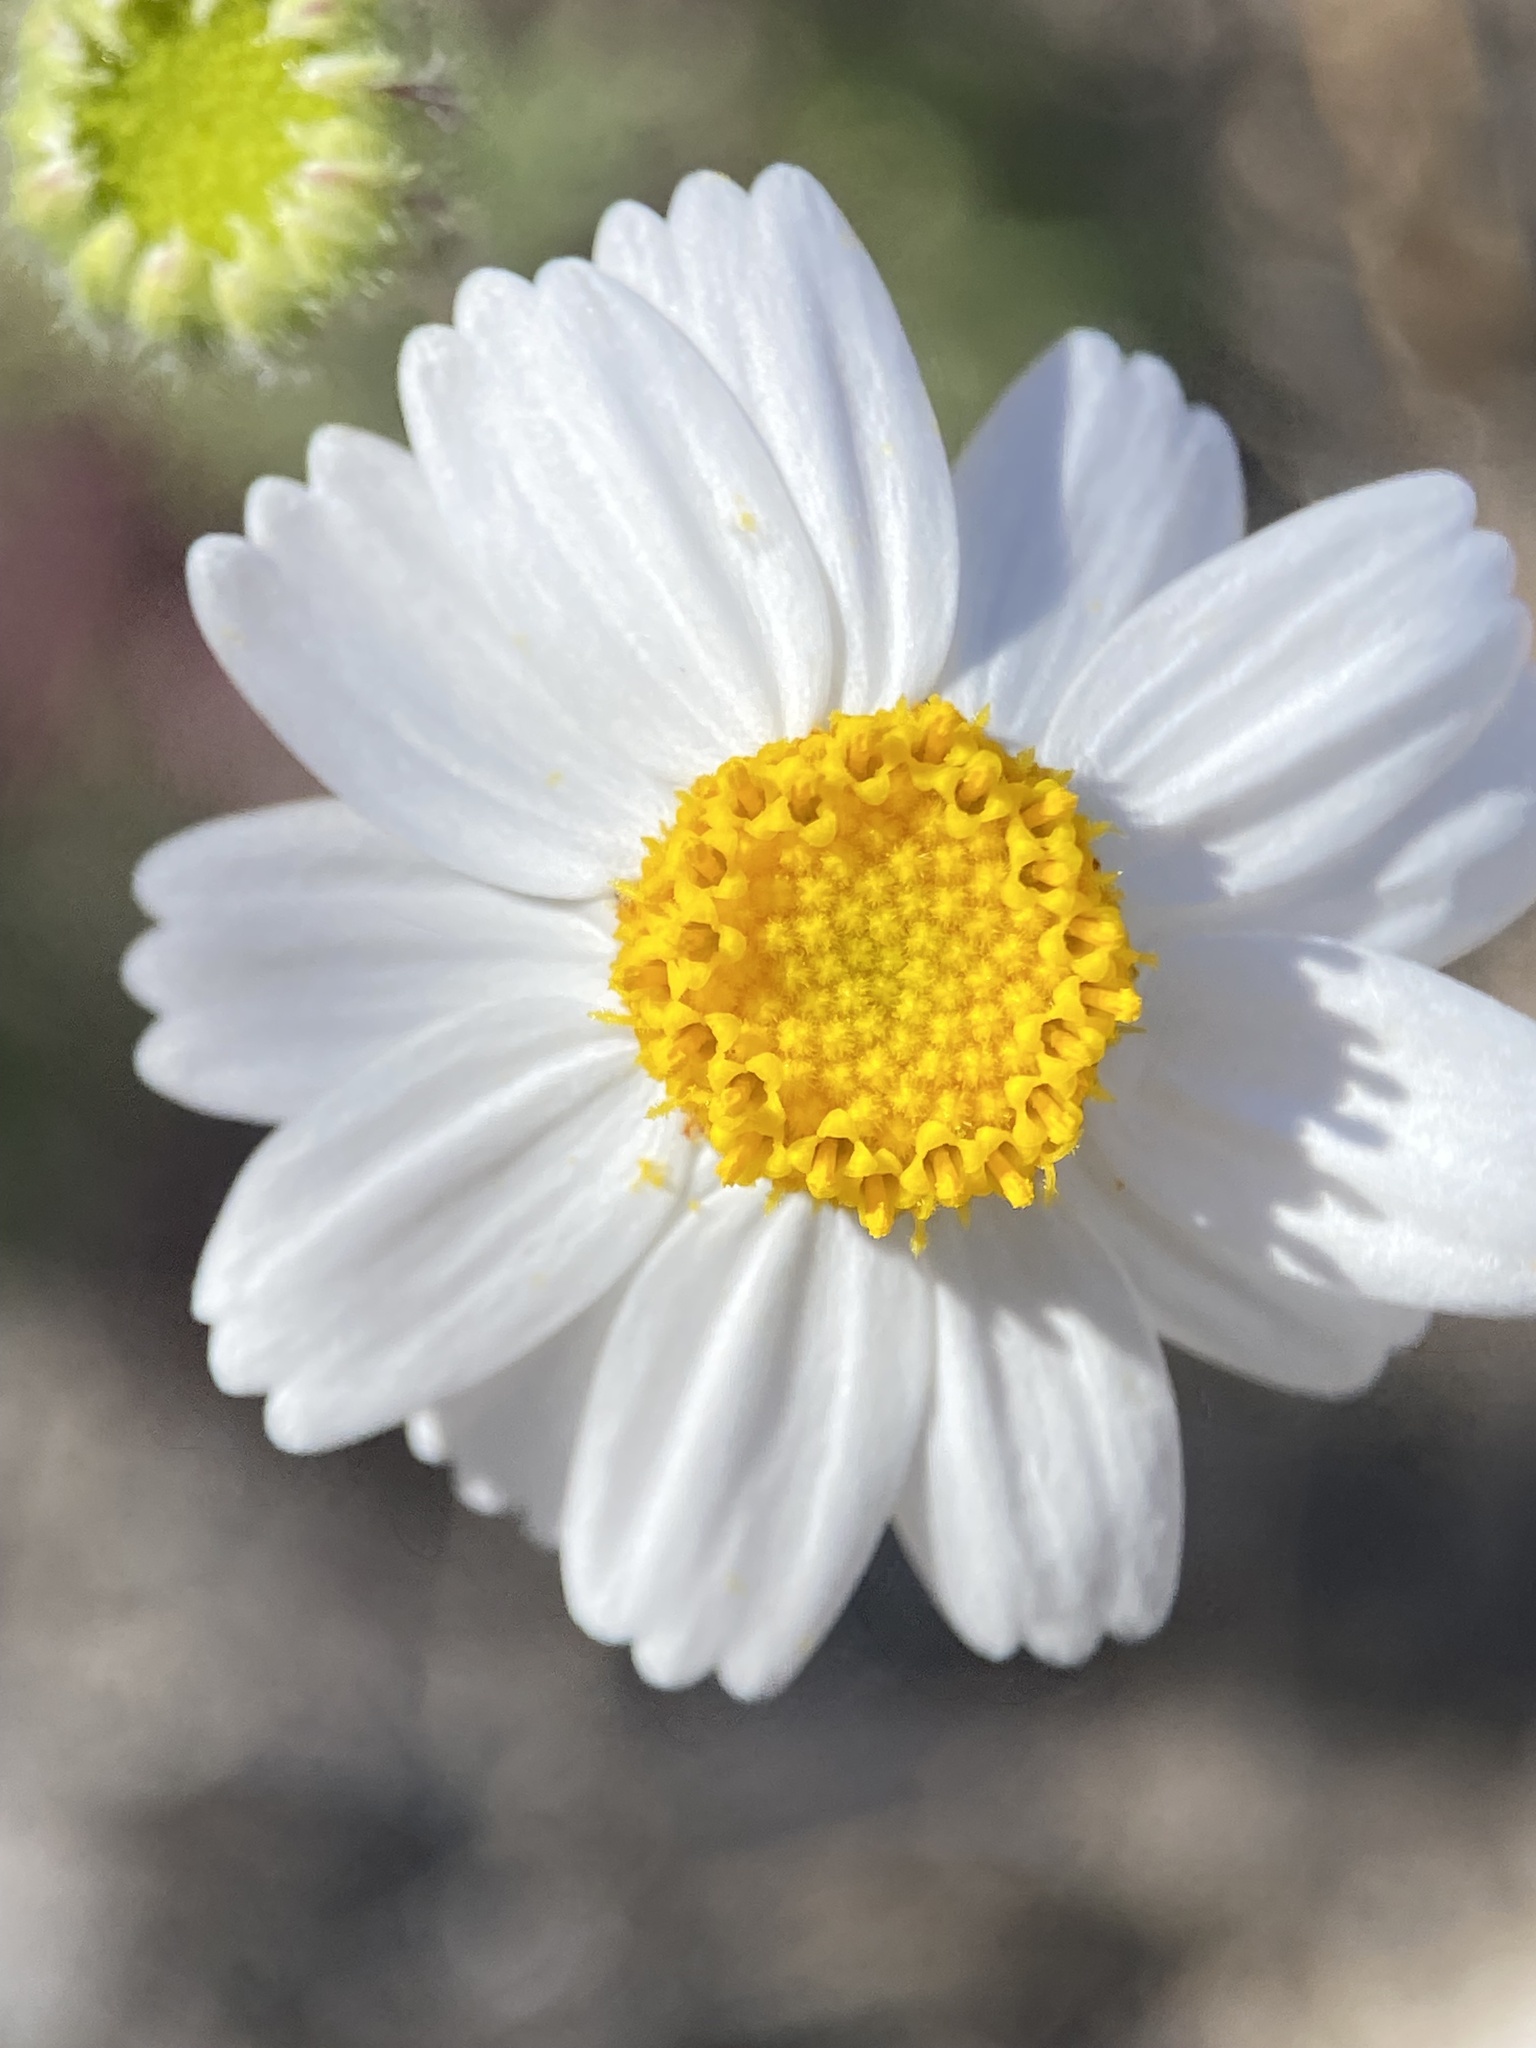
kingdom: Plantae
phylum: Tracheophyta
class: Magnoliopsida
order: Asterales
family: Asteraceae
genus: Perityle
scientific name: Perityle crassifolia
